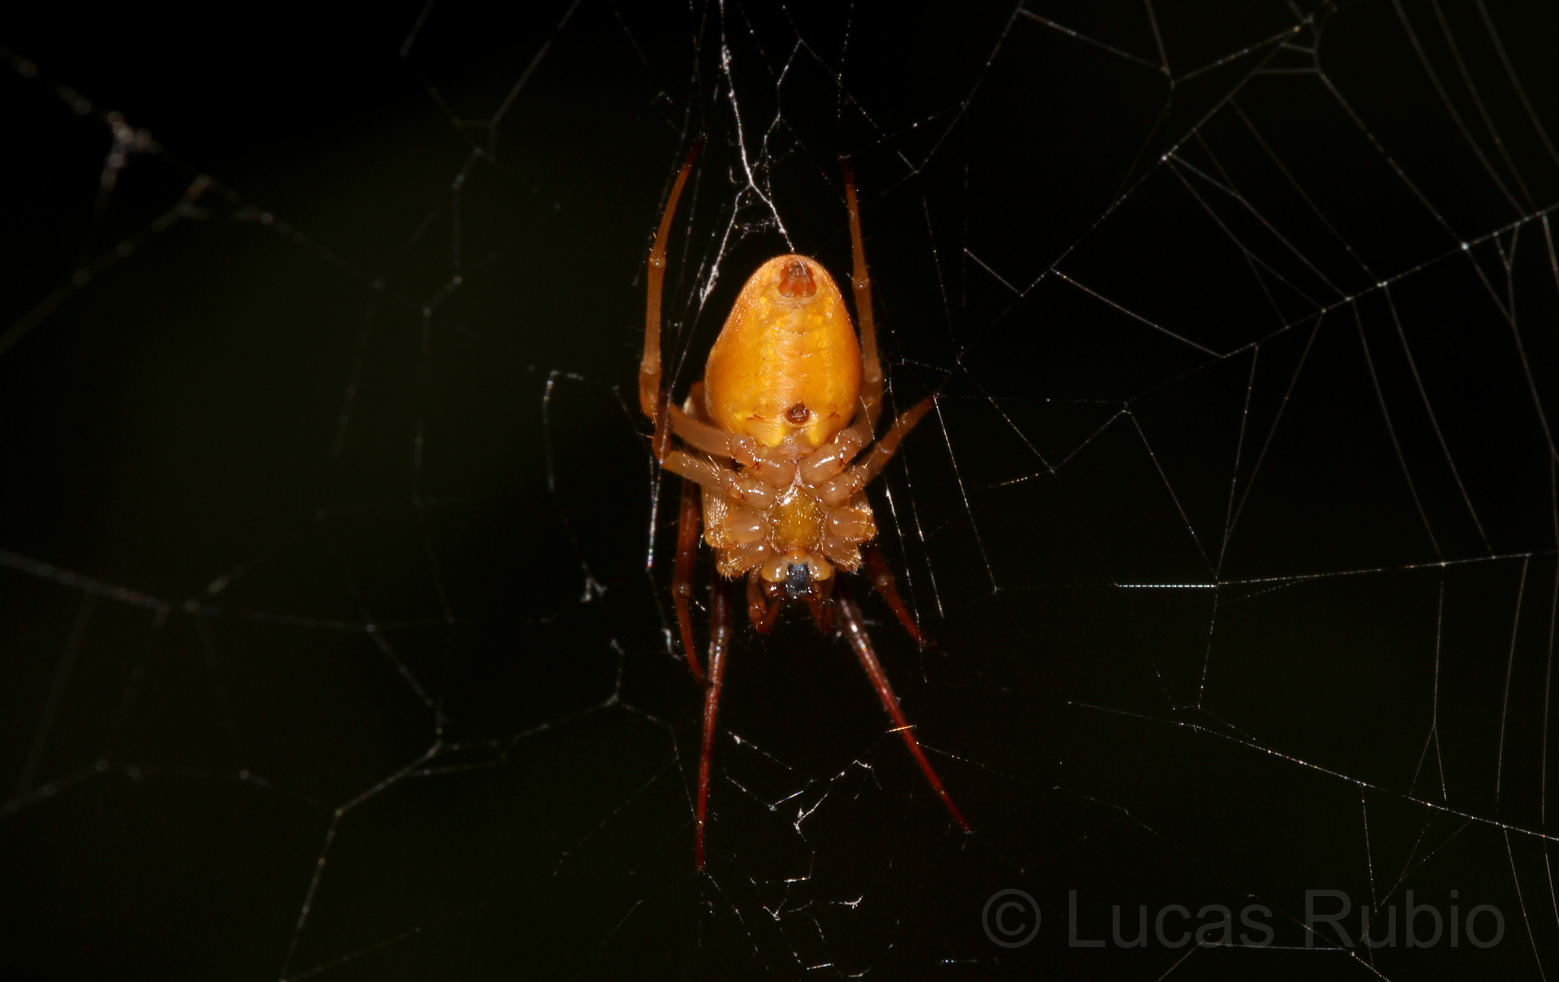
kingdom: Animalia
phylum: Arthropoda
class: Arachnida
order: Araneae
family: Araneidae
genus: Acacesia
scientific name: Acacesia hamata
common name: Orb weavers
